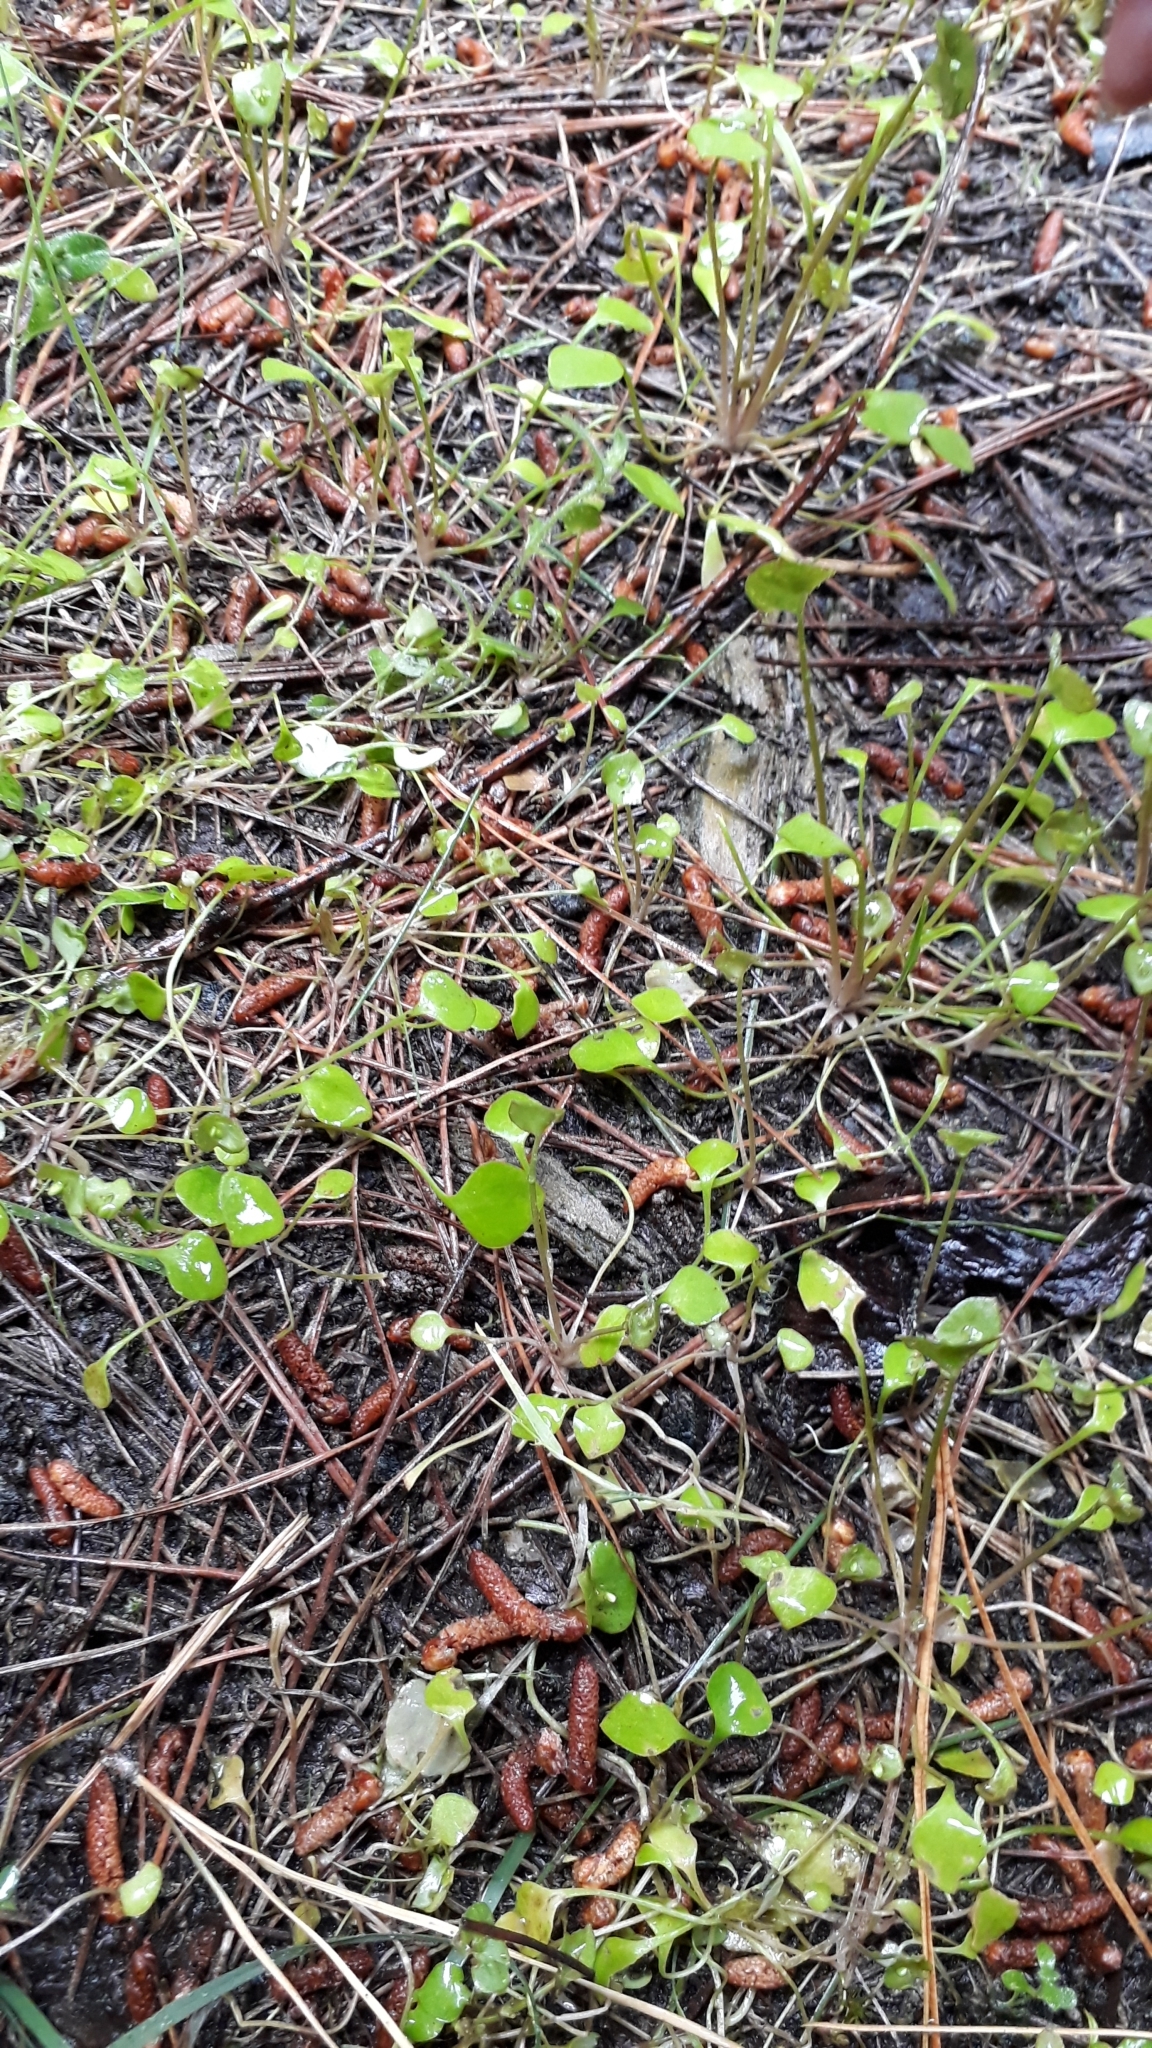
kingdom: Plantae
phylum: Tracheophyta
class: Magnoliopsida
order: Caryophyllales
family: Montiaceae
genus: Claytonia
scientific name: Claytonia perfoliata
